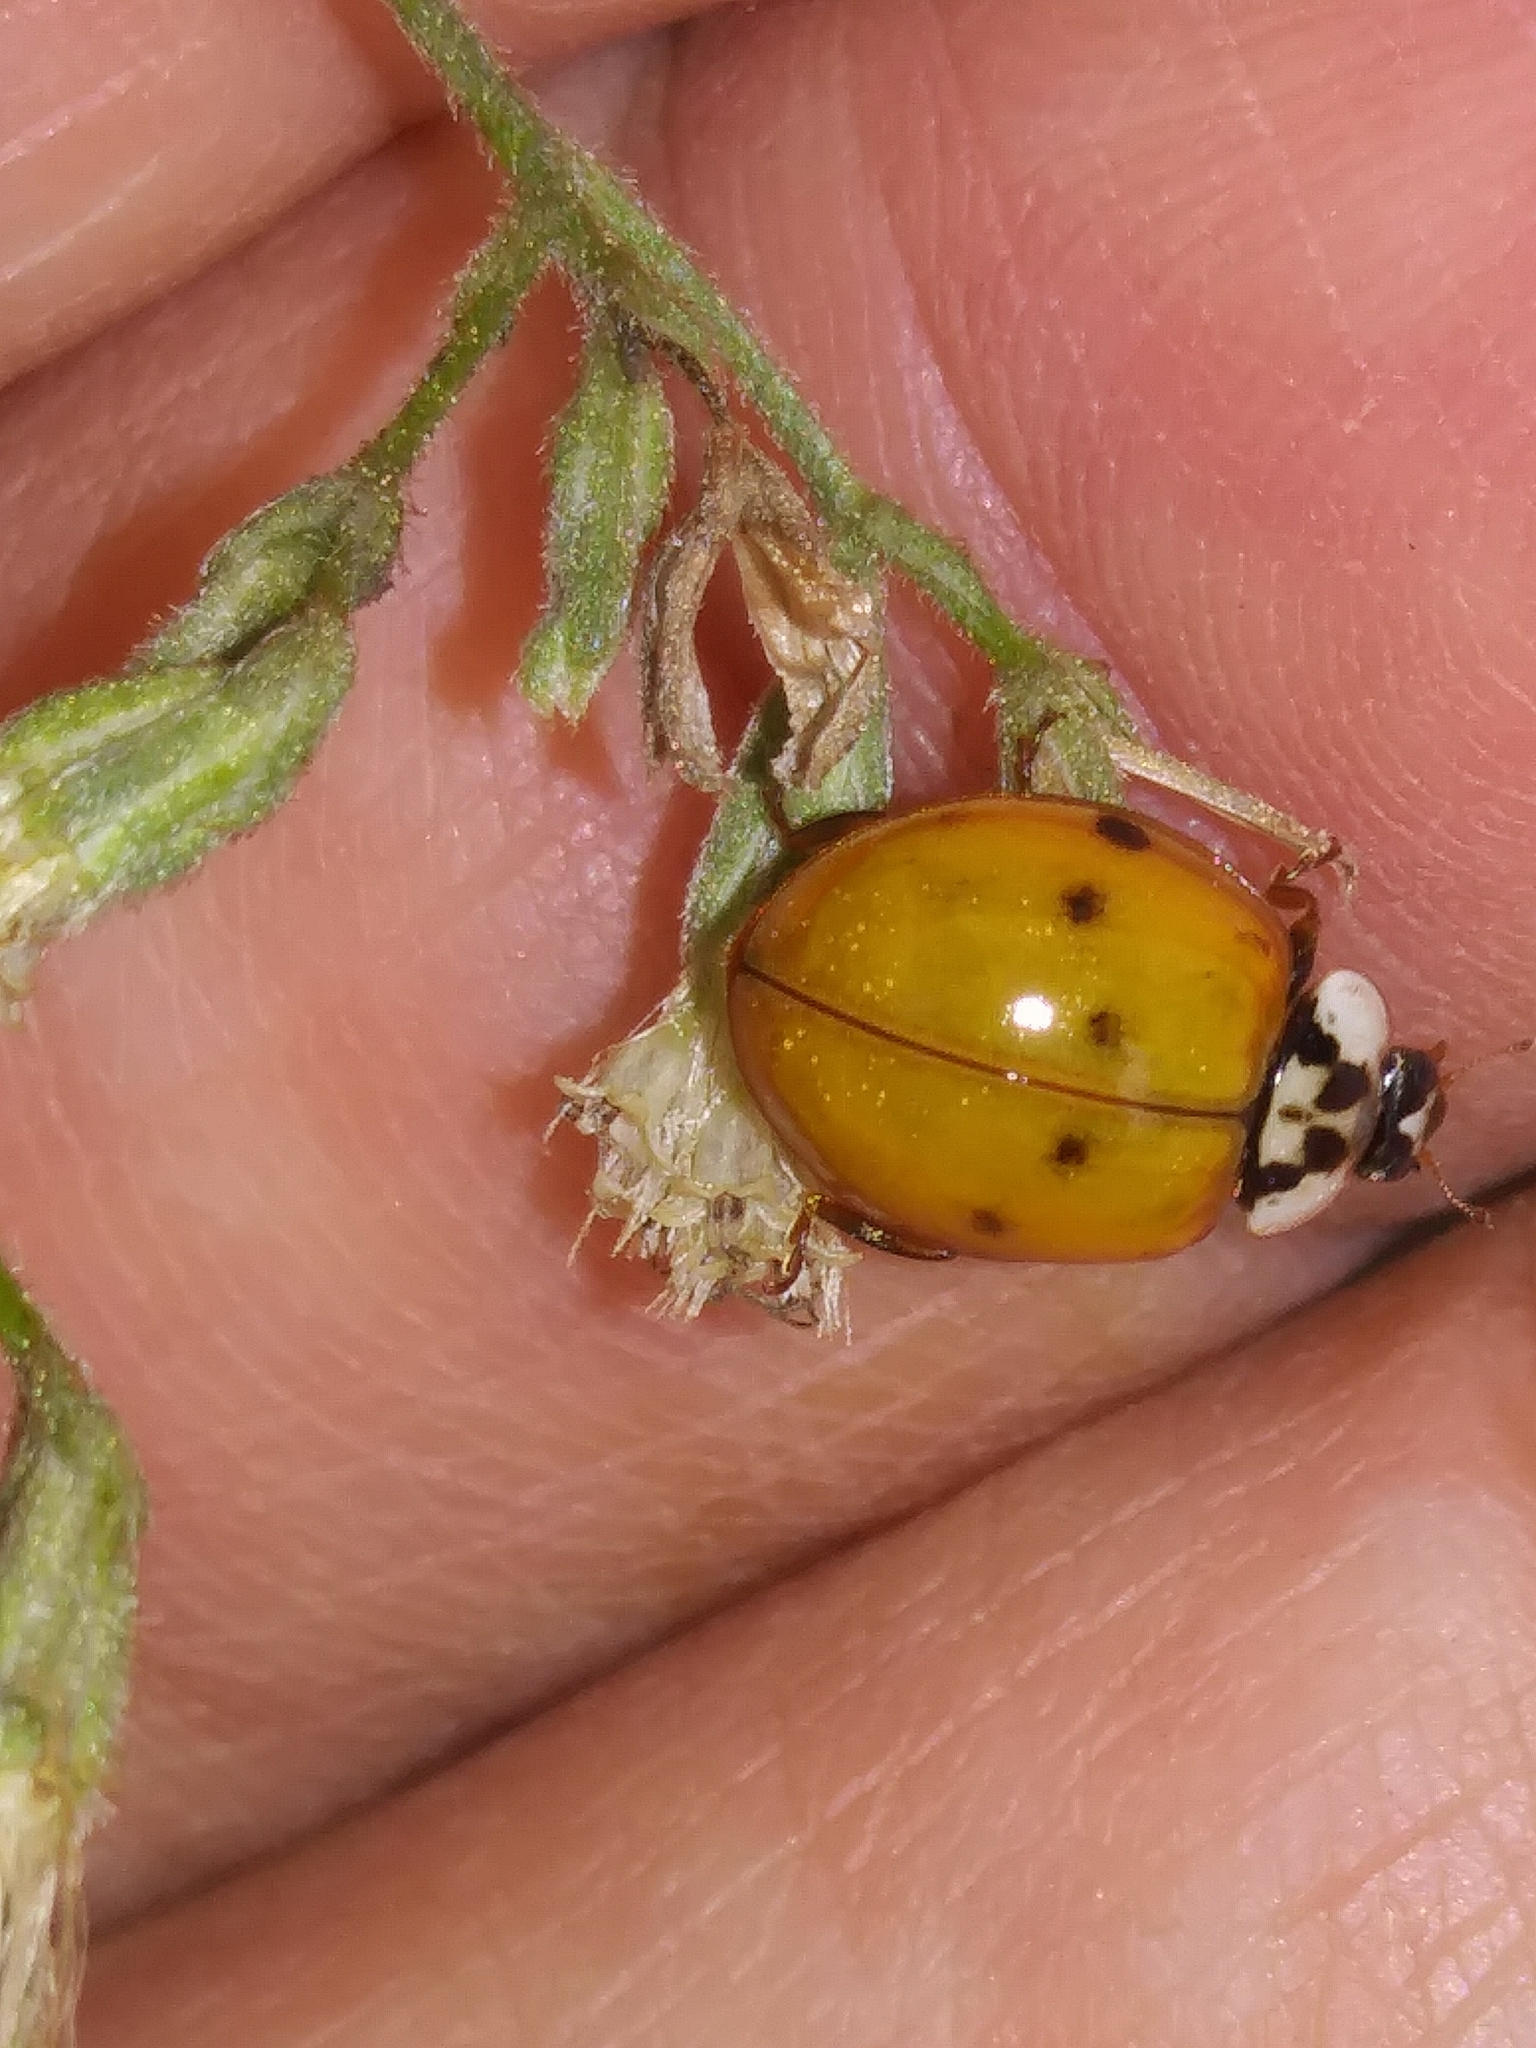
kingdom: Animalia
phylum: Arthropoda
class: Insecta
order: Coleoptera
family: Coccinellidae
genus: Harmonia
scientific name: Harmonia axyridis
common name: Harlequin ladybird
